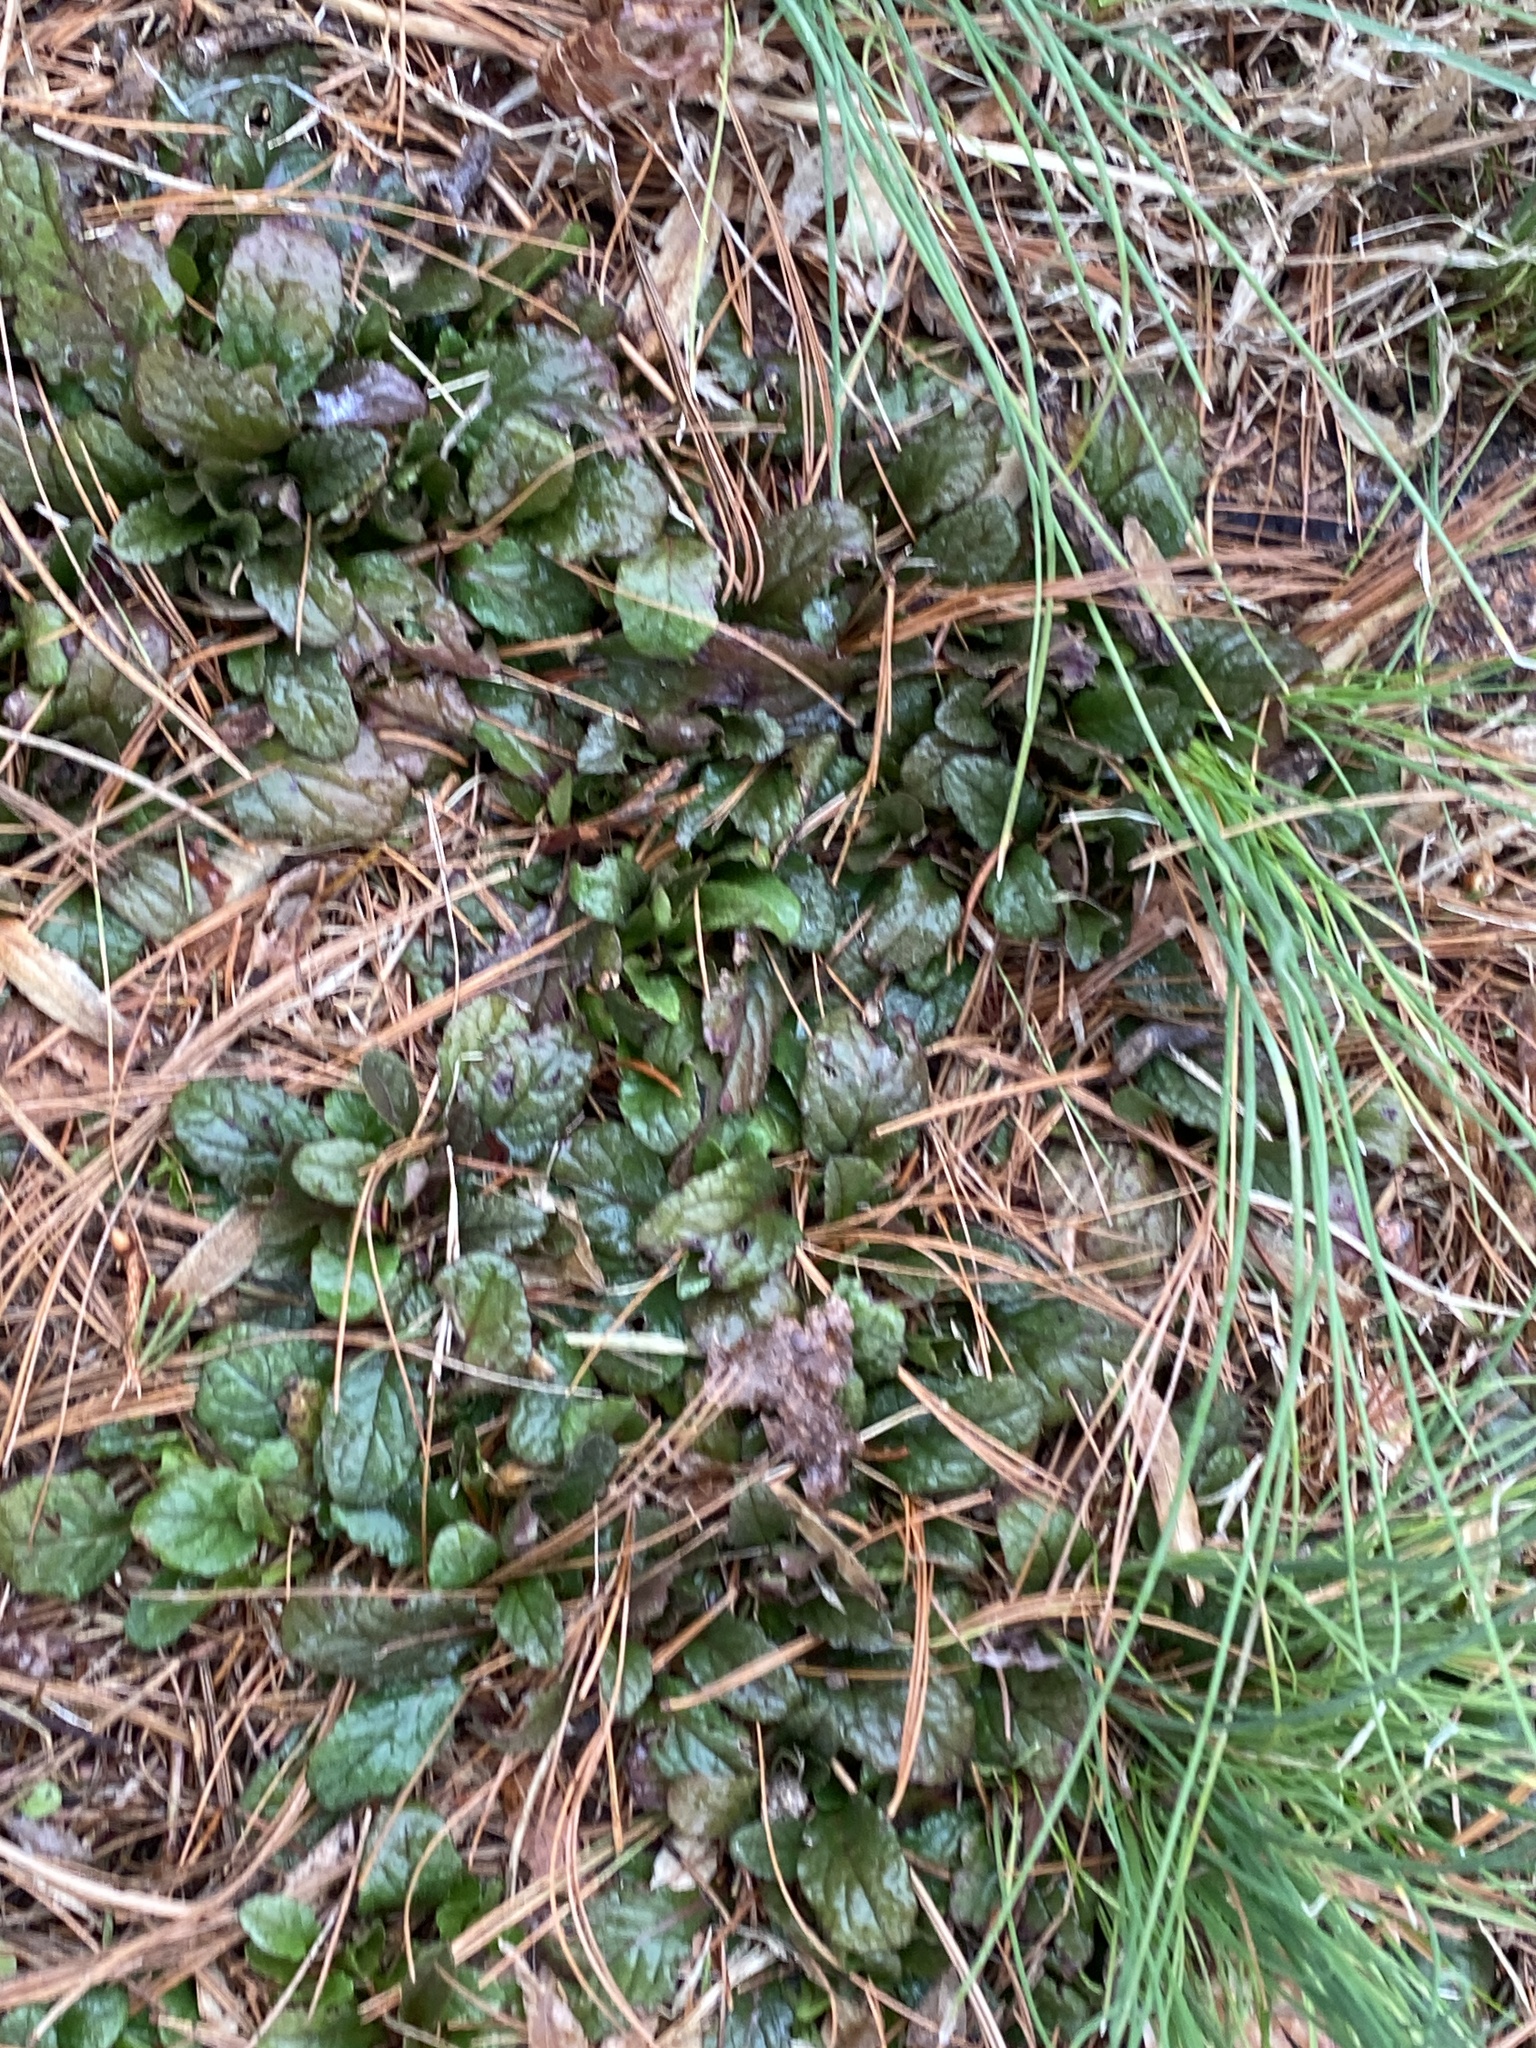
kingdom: Plantae
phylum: Tracheophyta
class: Magnoliopsida
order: Lamiales
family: Lamiaceae
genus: Ajuga
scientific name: Ajuga reptans
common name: Bugle
